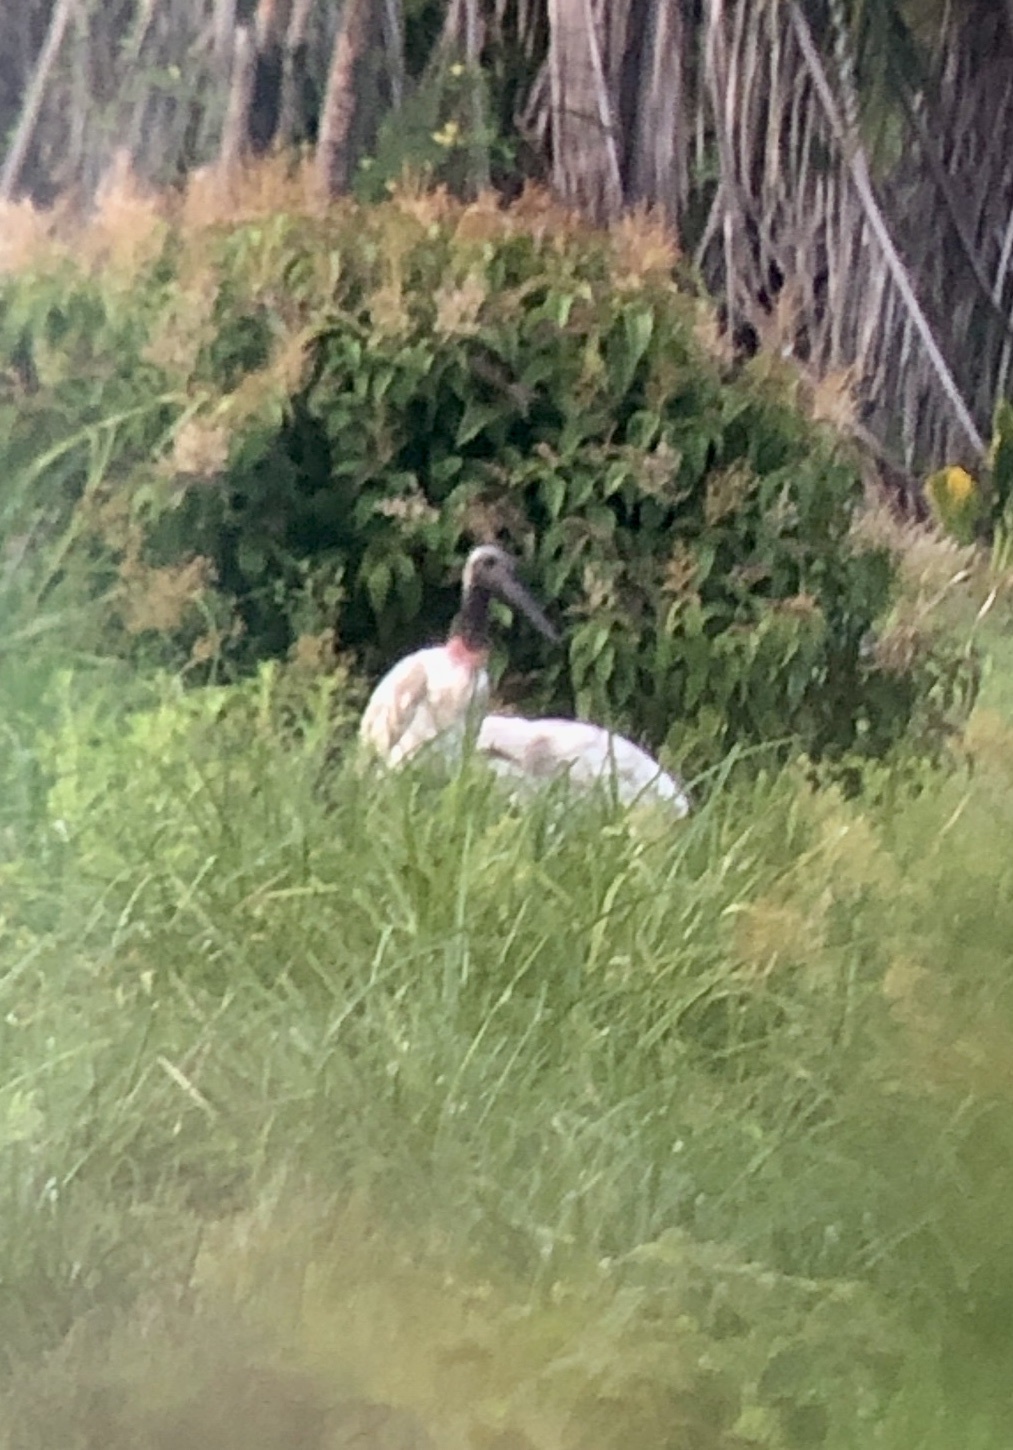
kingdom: Animalia
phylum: Chordata
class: Aves
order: Ciconiiformes
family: Ciconiidae
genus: Jabiru
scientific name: Jabiru mycteria
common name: Jabiru
